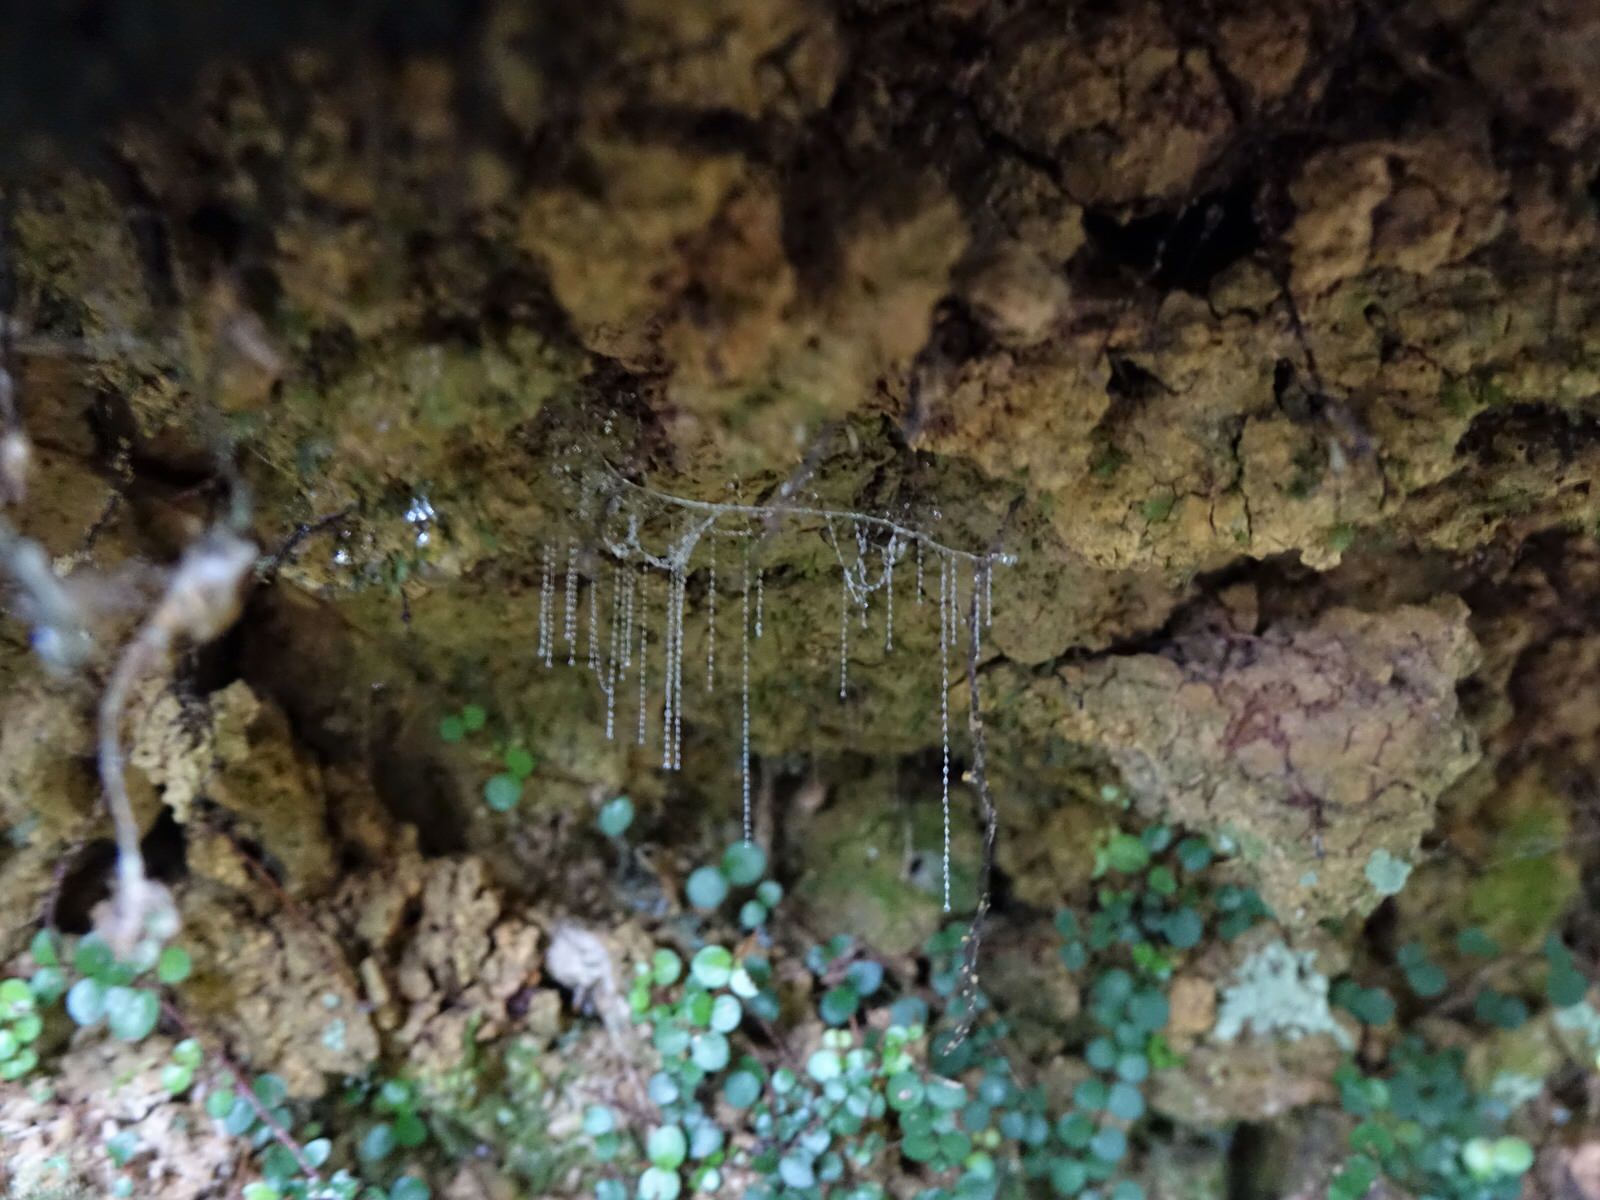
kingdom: Animalia
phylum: Arthropoda
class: Insecta
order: Diptera
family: Keroplatidae
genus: Arachnocampa
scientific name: Arachnocampa luminosa
